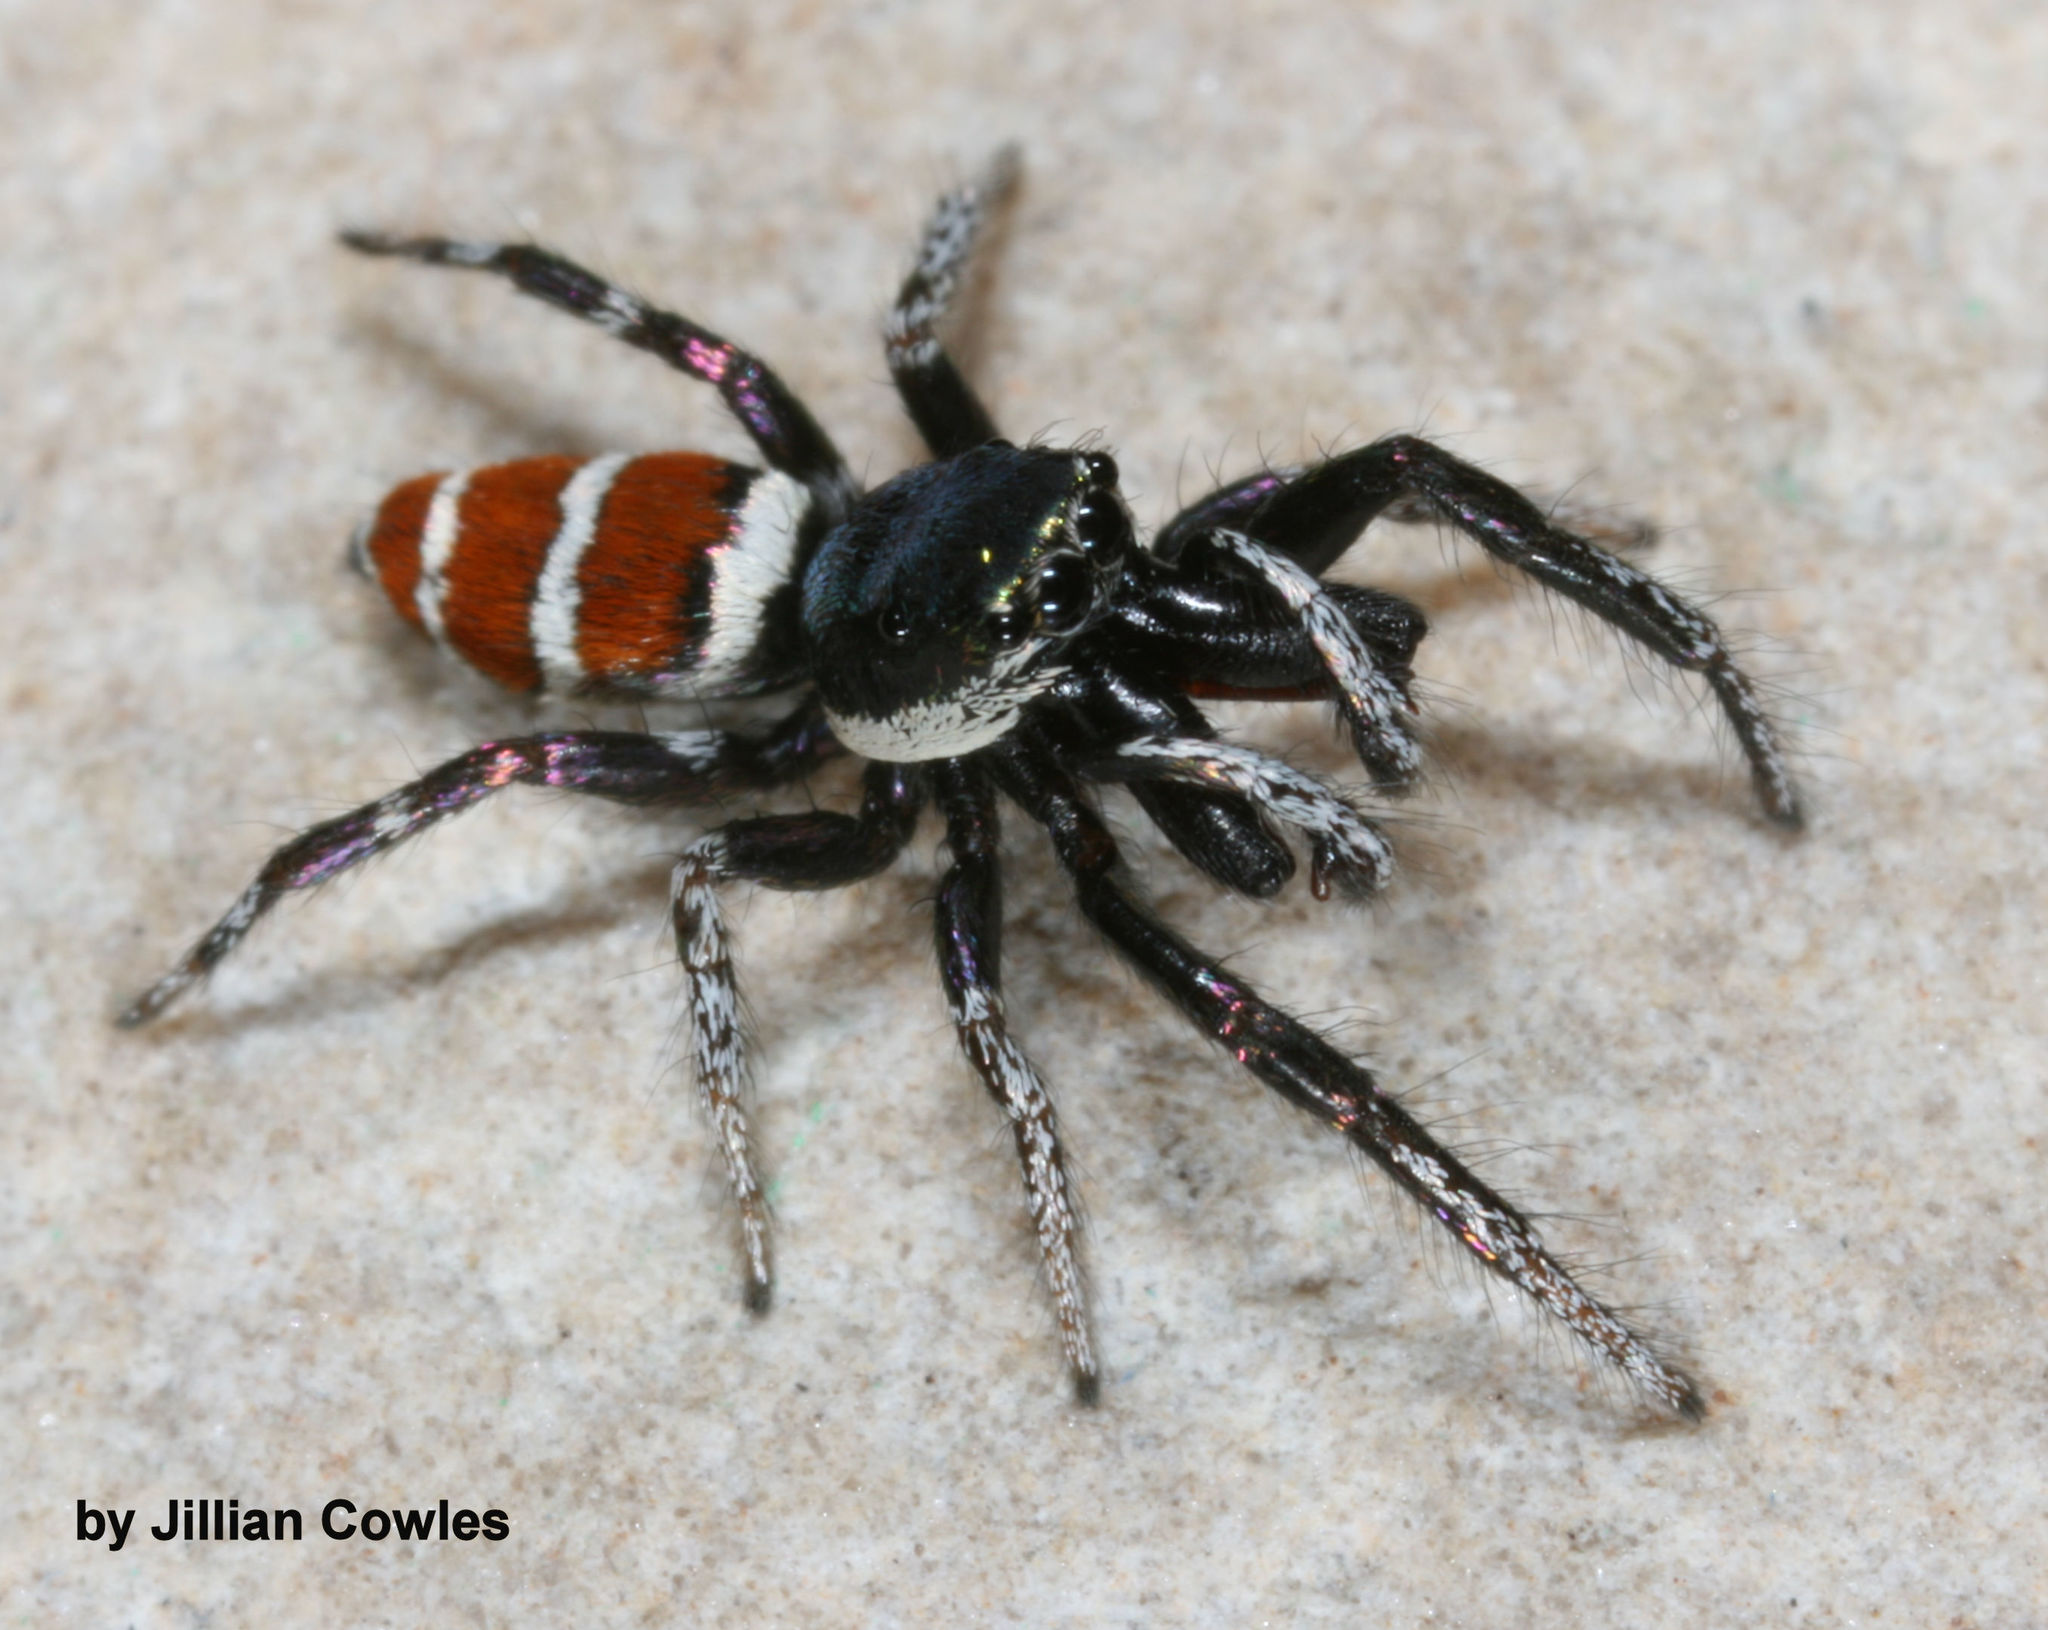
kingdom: Animalia
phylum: Arthropoda
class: Arachnida
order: Araneae
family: Salticidae
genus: Salticus
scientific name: Salticus palpalis
